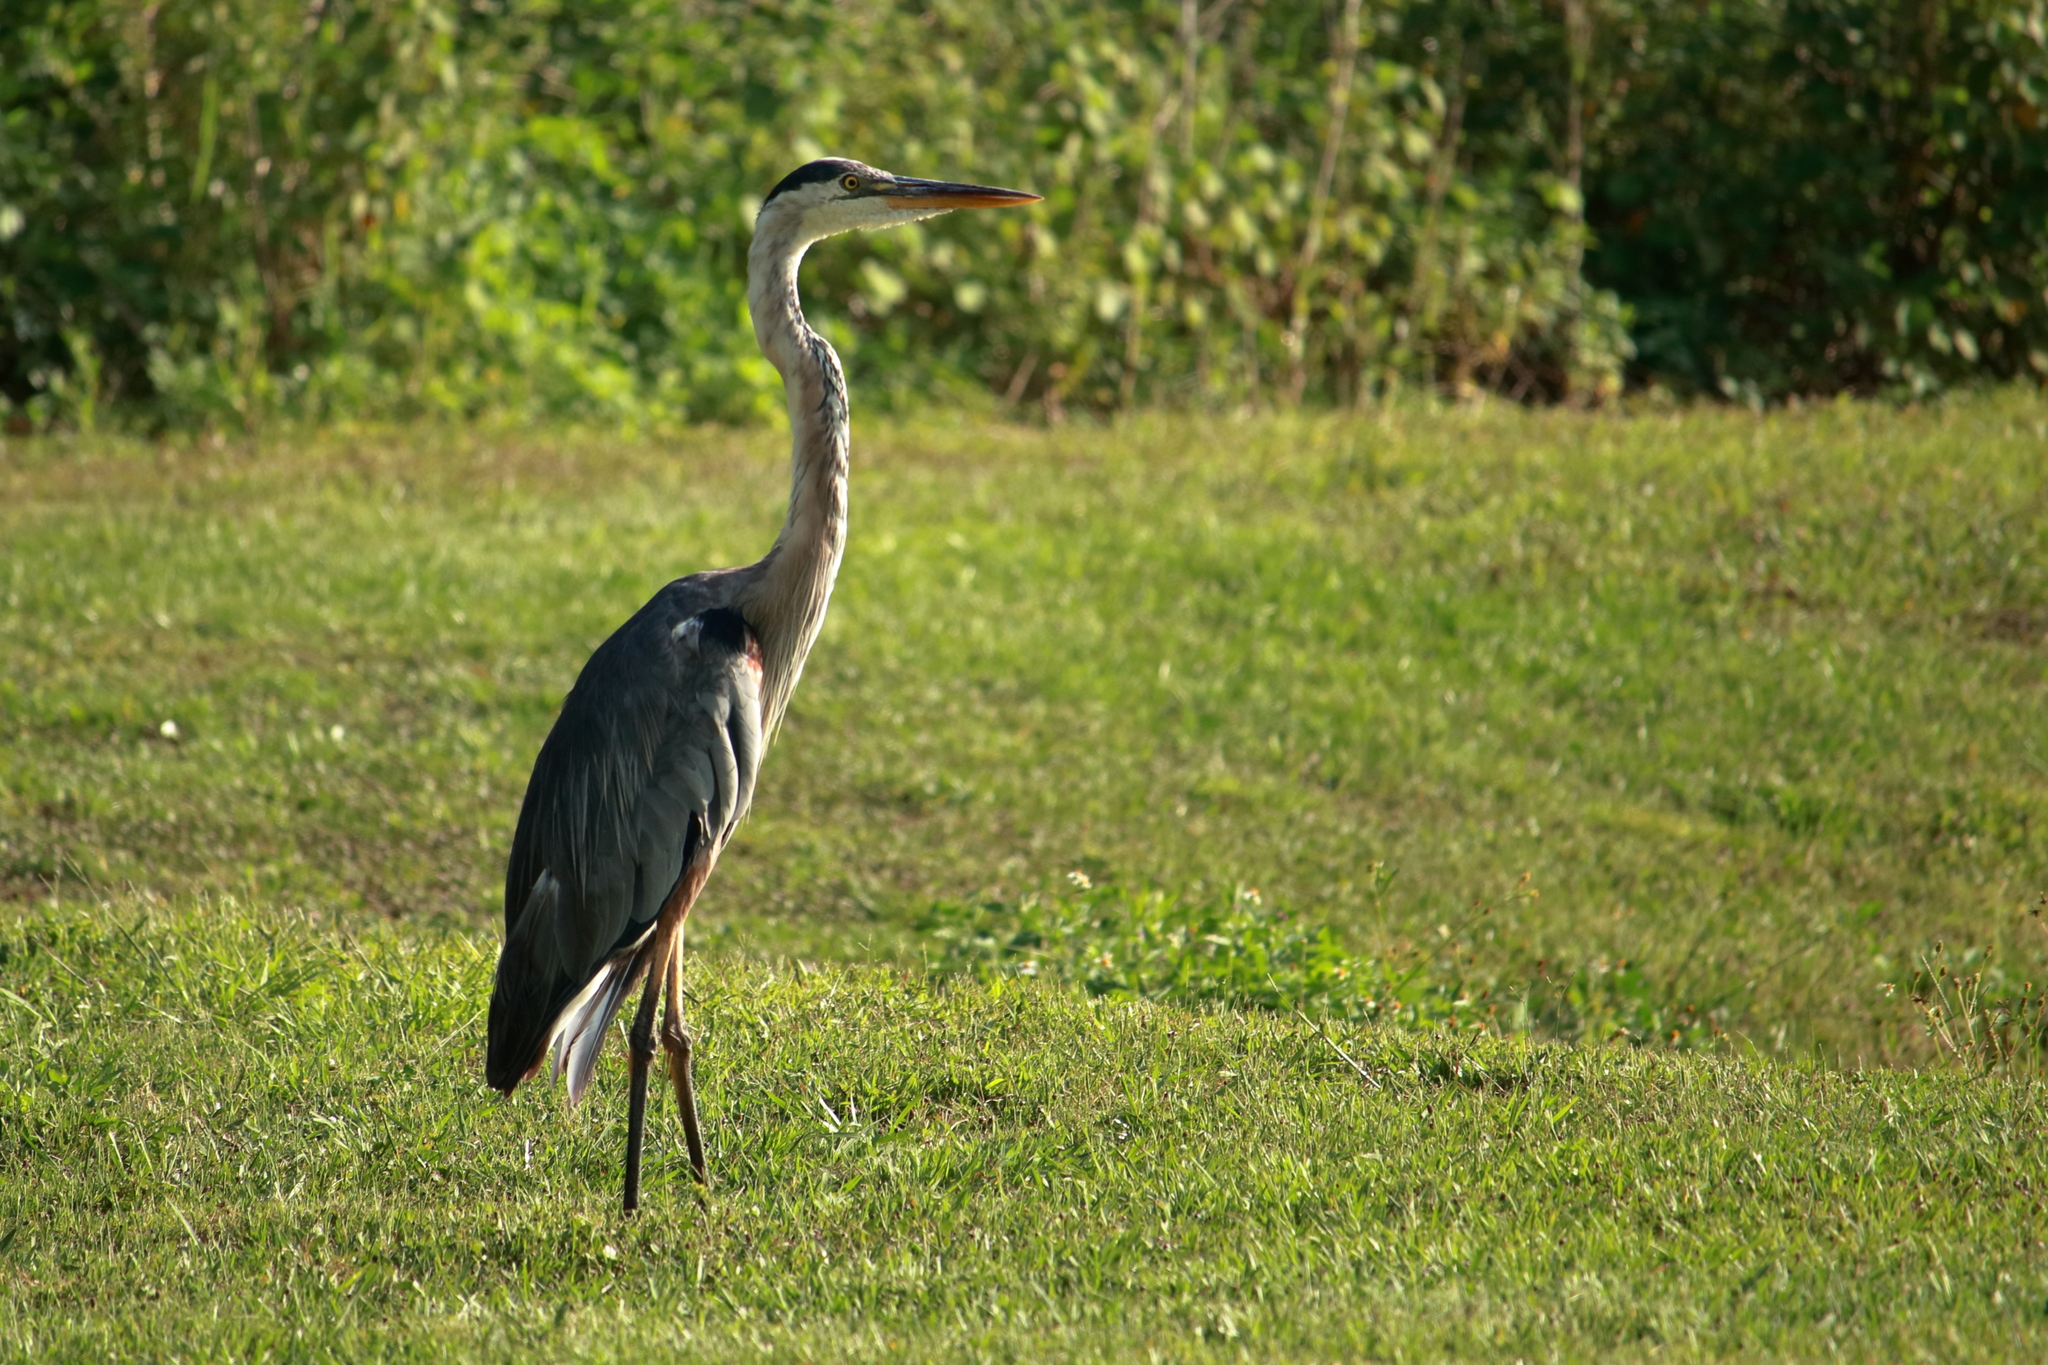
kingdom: Animalia
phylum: Chordata
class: Aves
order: Pelecaniformes
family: Ardeidae
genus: Ardea
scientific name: Ardea herodias
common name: Great blue heron
